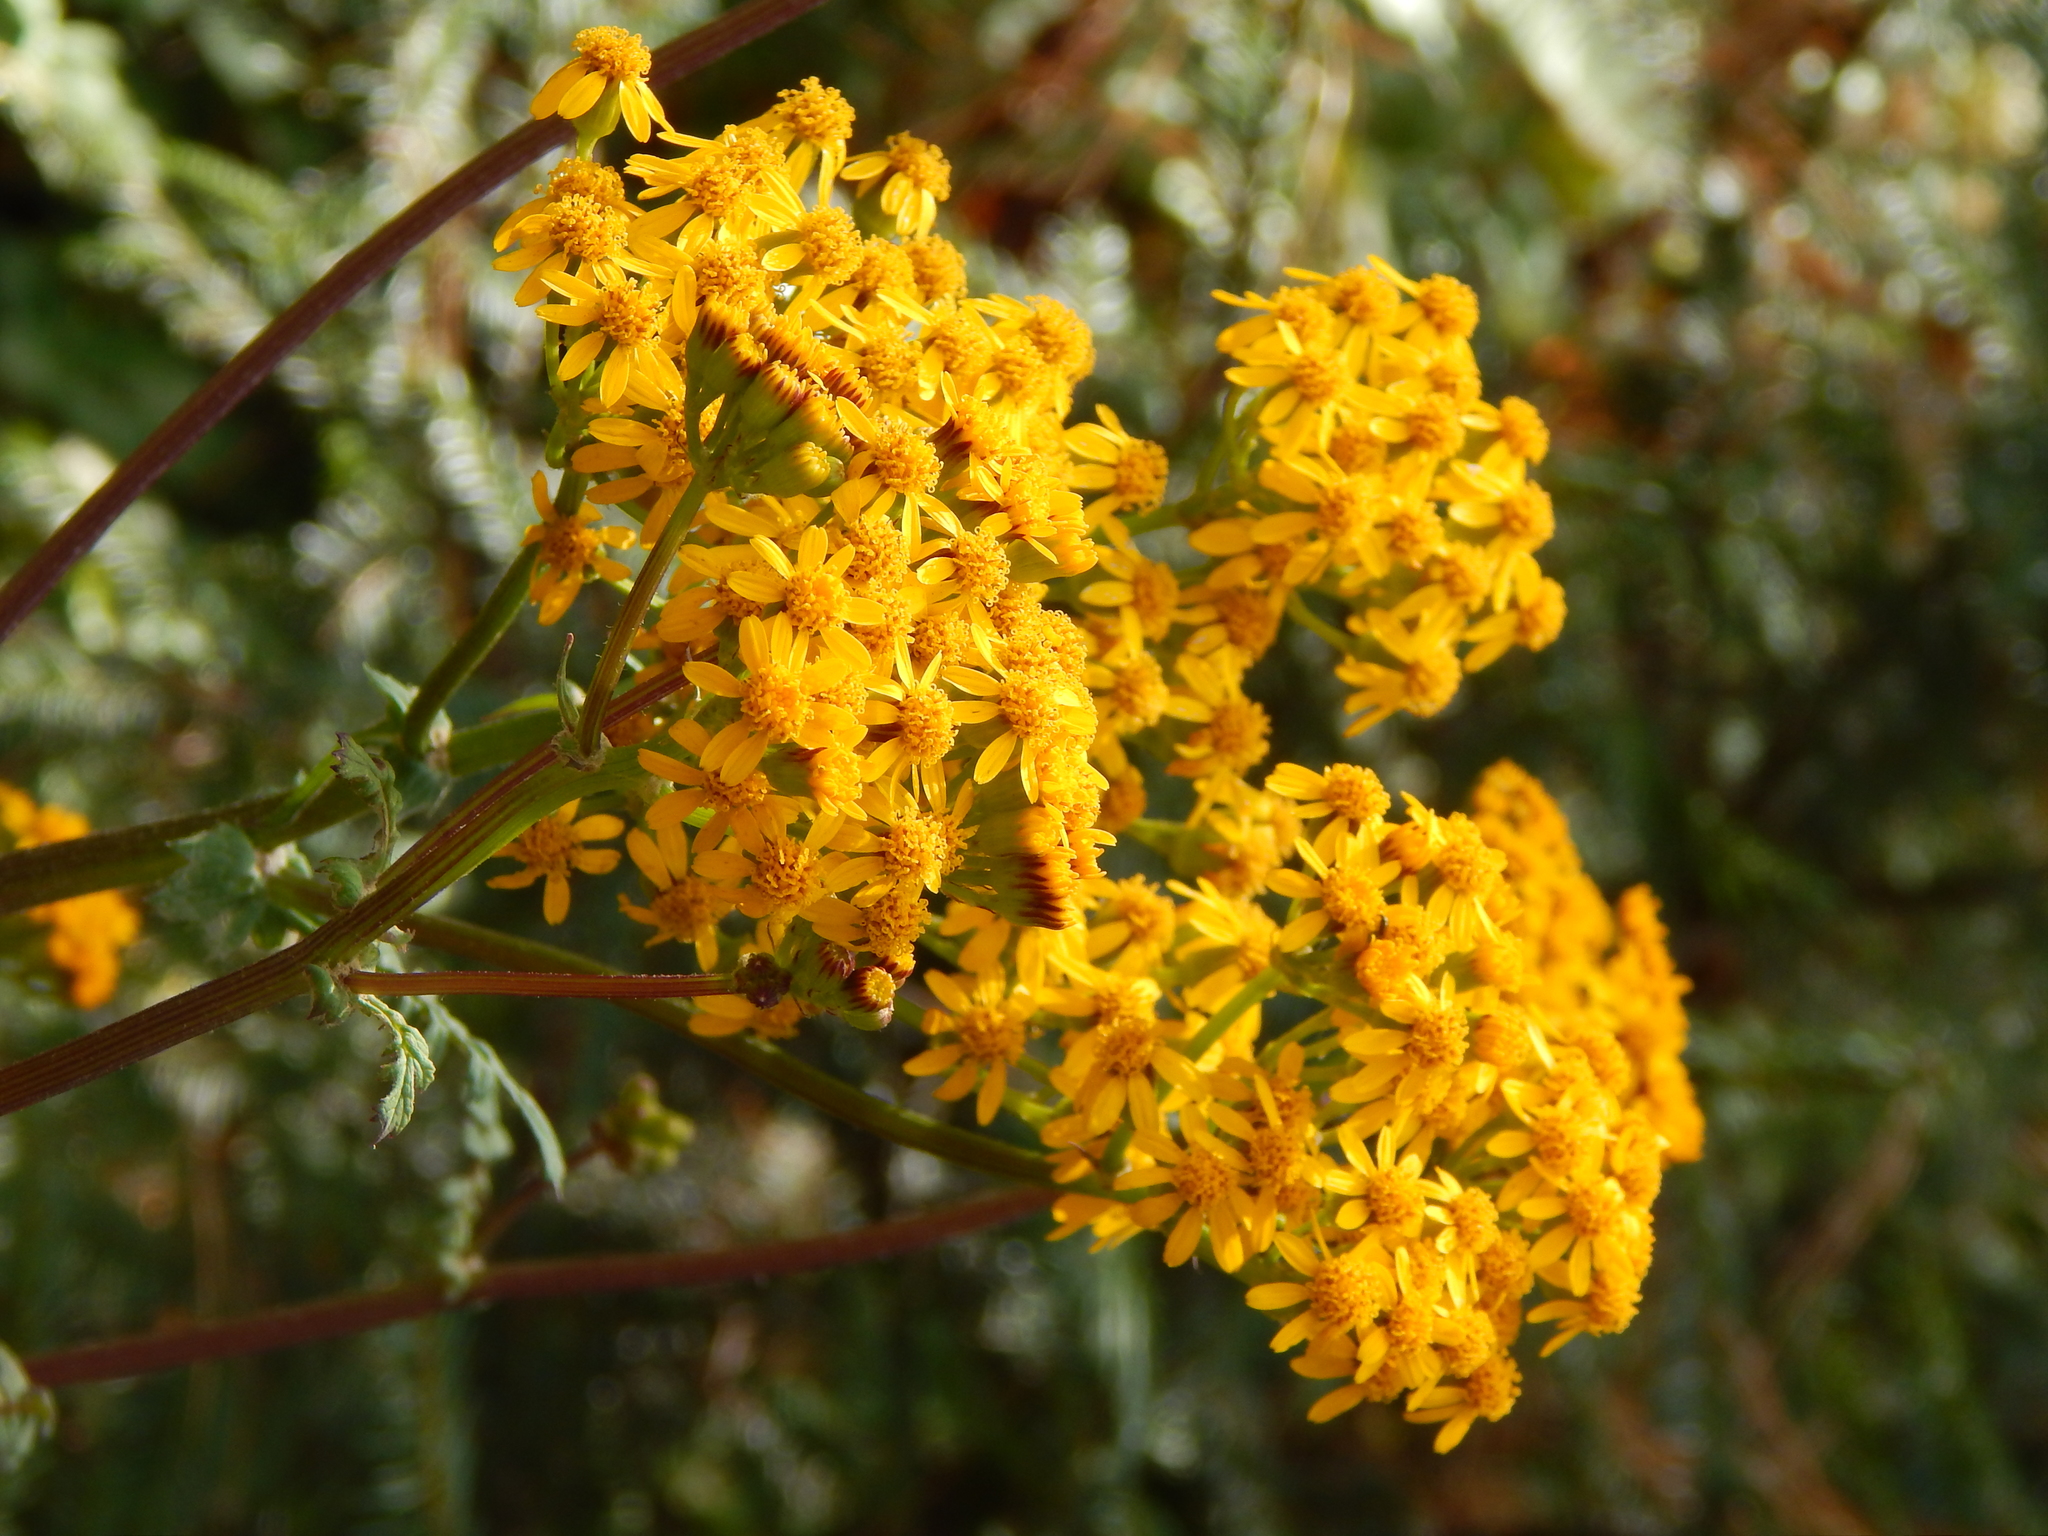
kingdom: Plantae
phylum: Tracheophyta
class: Magnoliopsida
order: Asterales
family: Asteraceae
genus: Packera
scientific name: Packera sanguisorbae
